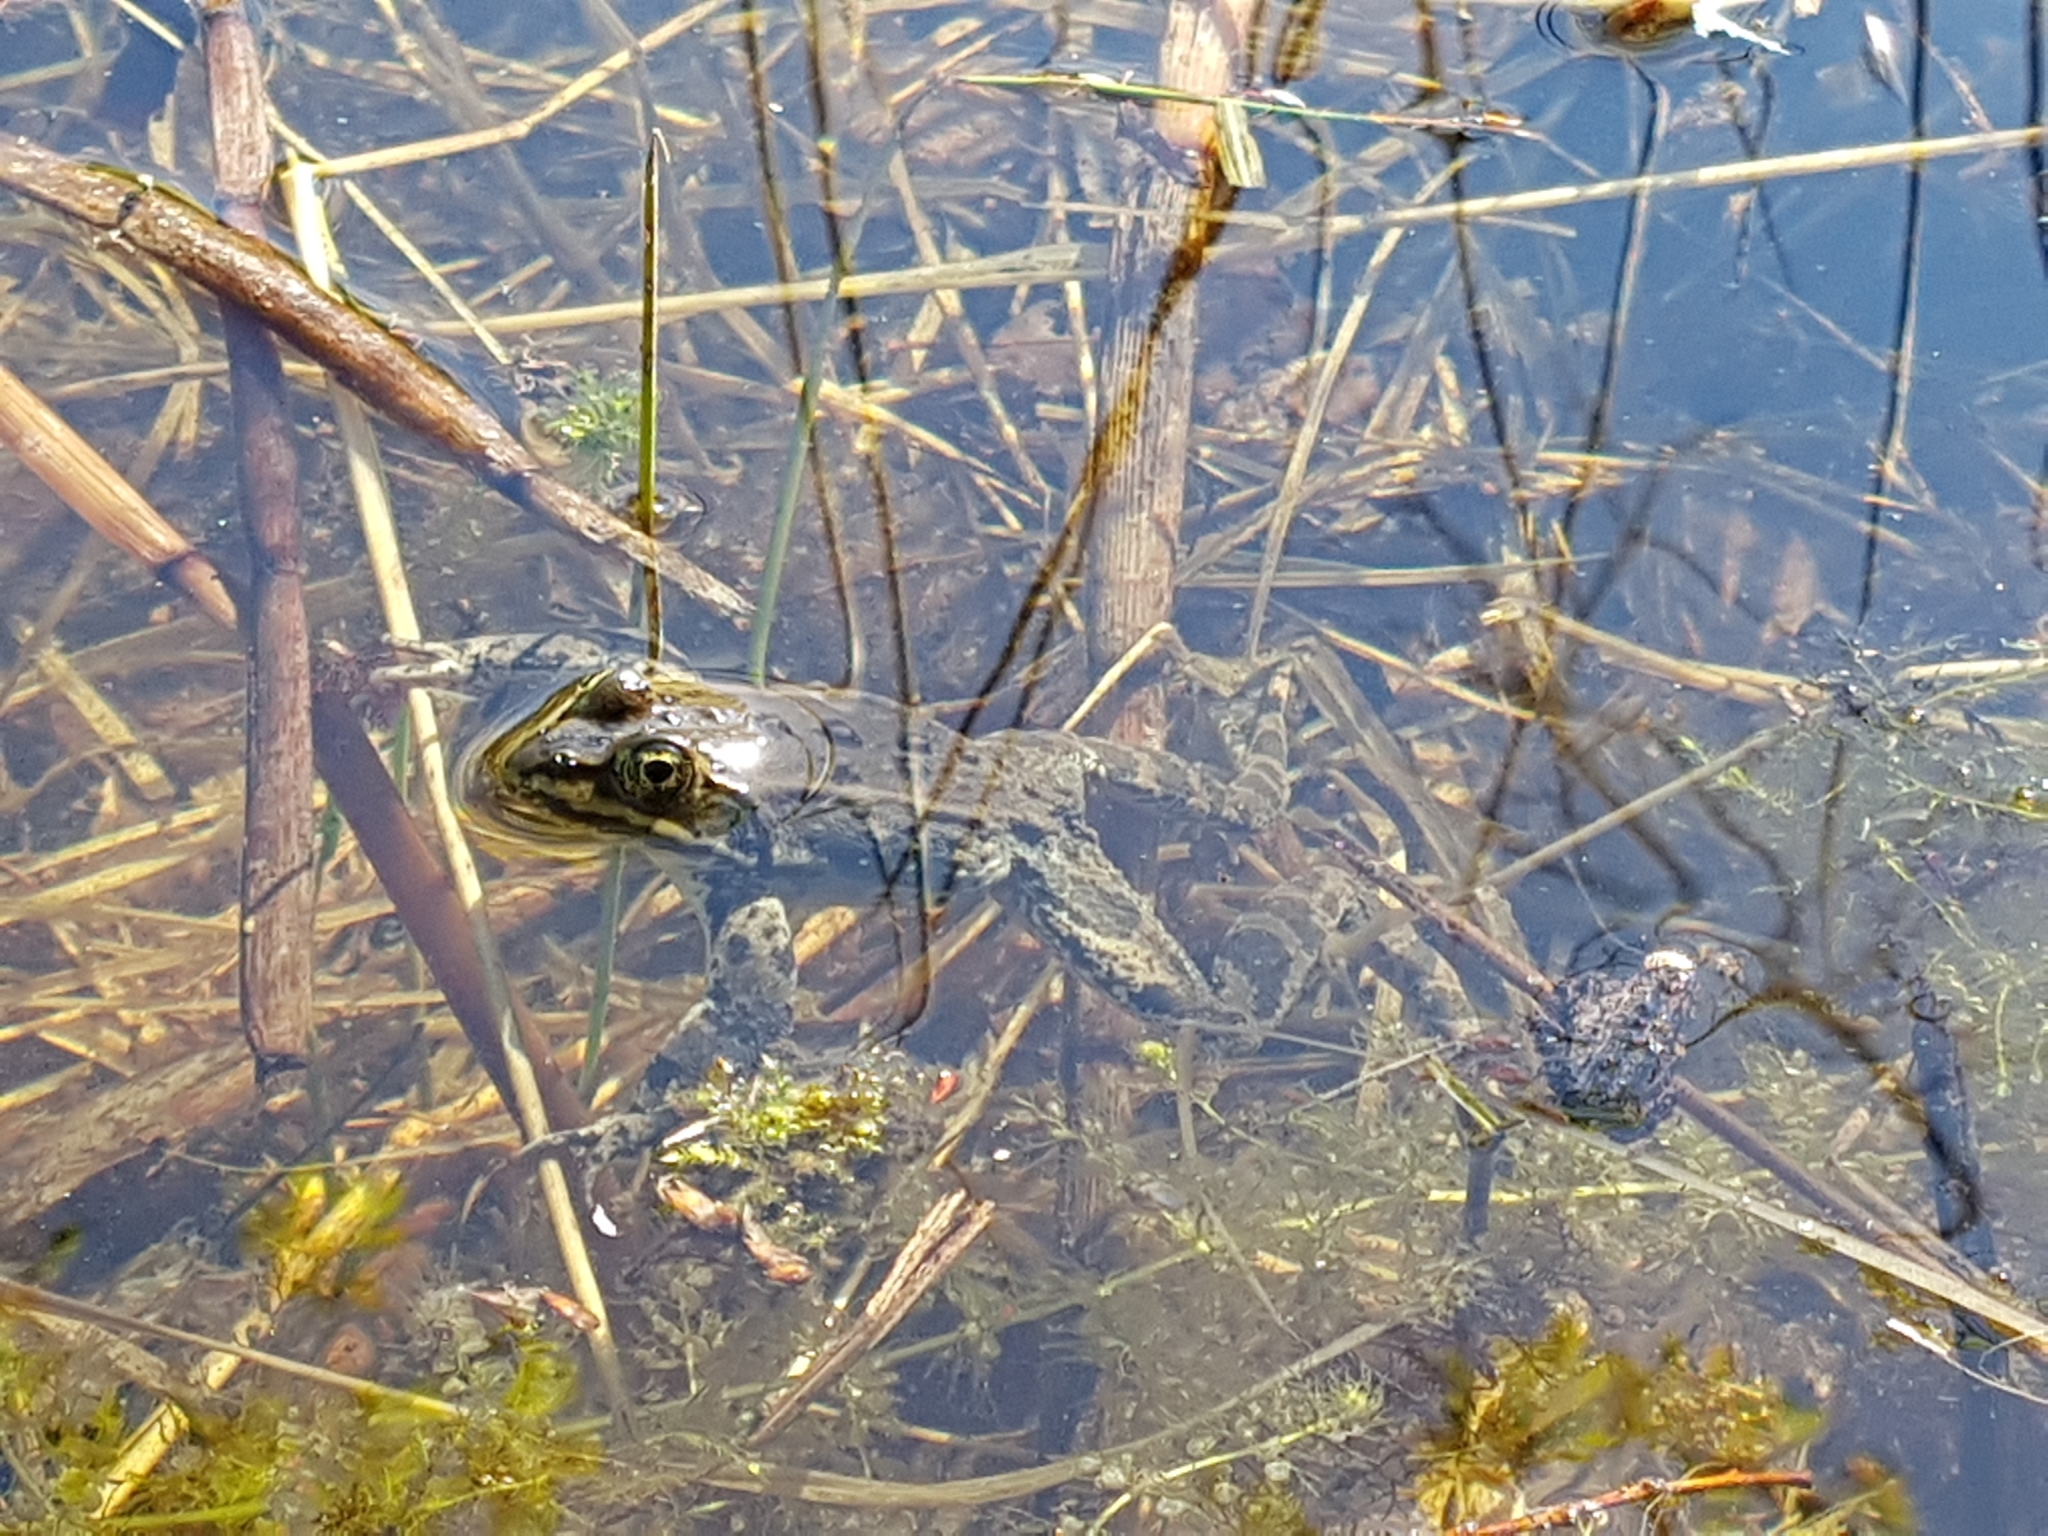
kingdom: Animalia
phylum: Chordata
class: Amphibia
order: Anura
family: Ranidae
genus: Rana
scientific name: Rana luteiventris
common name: Columbia spotted frog
